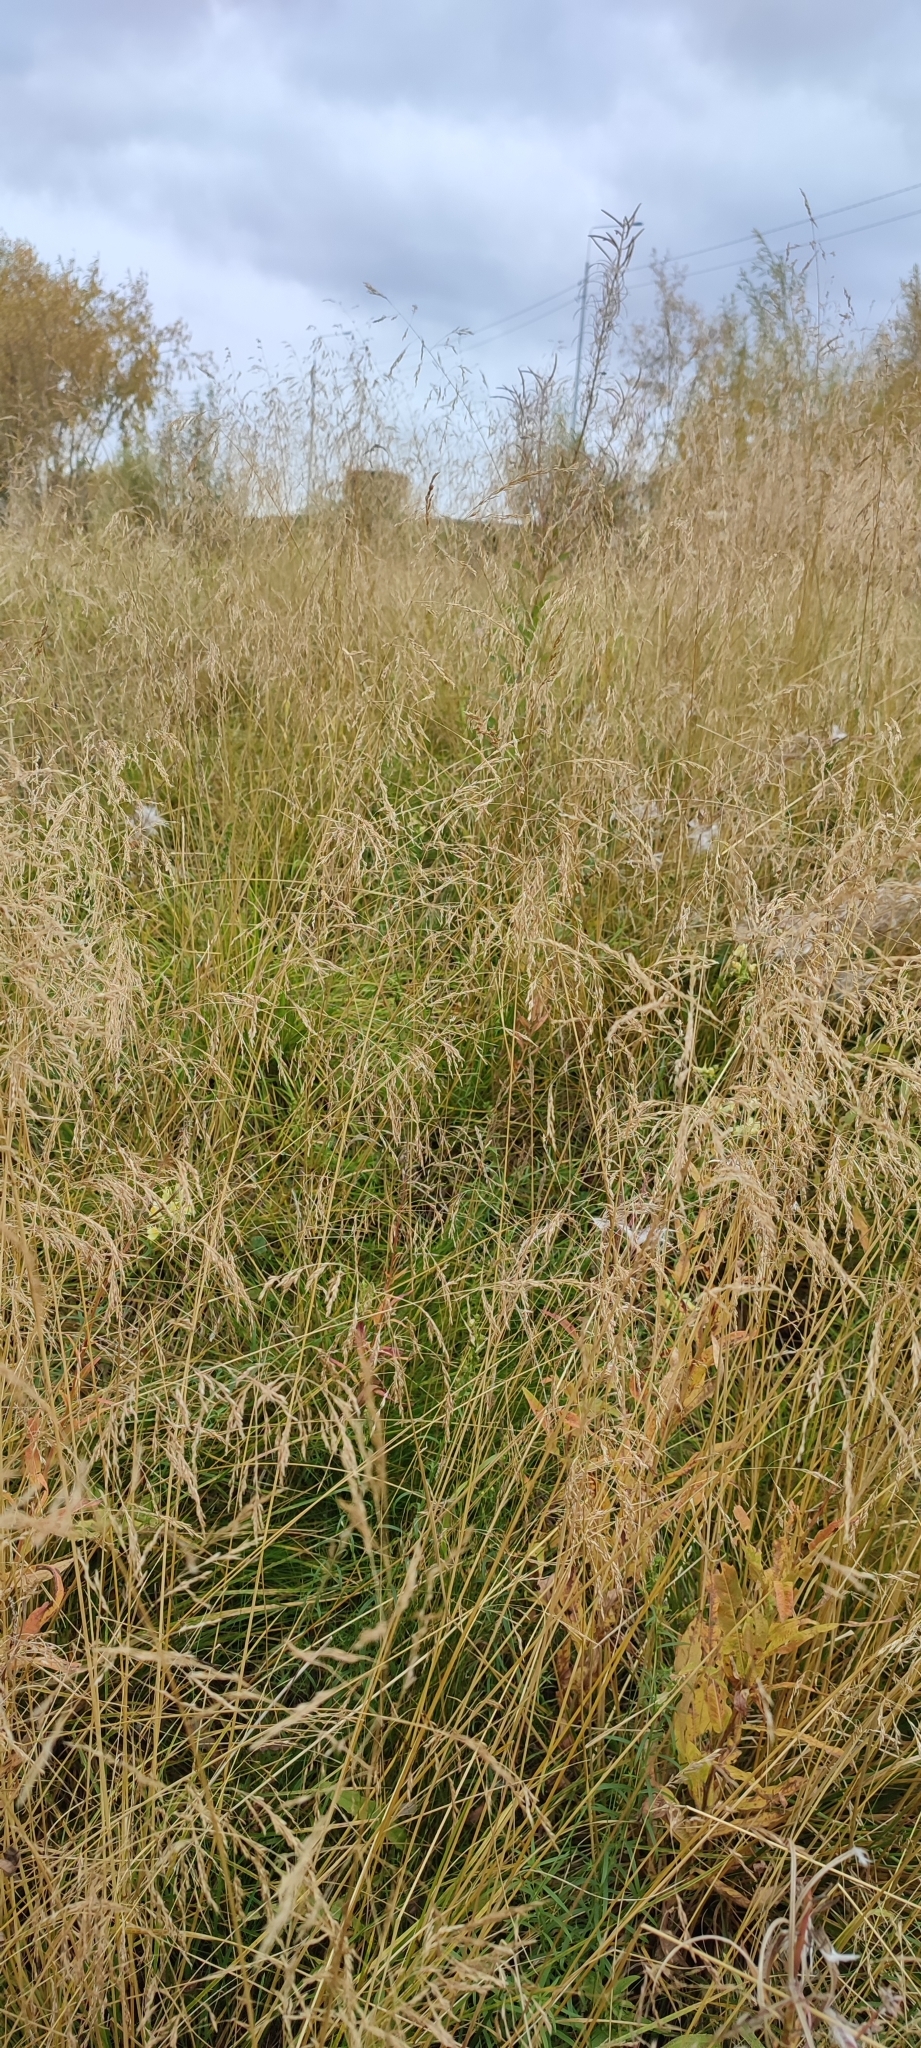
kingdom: Plantae
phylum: Tracheophyta
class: Liliopsida
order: Poales
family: Poaceae
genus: Deschampsia
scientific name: Deschampsia cespitosa
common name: Tufted hair-grass
